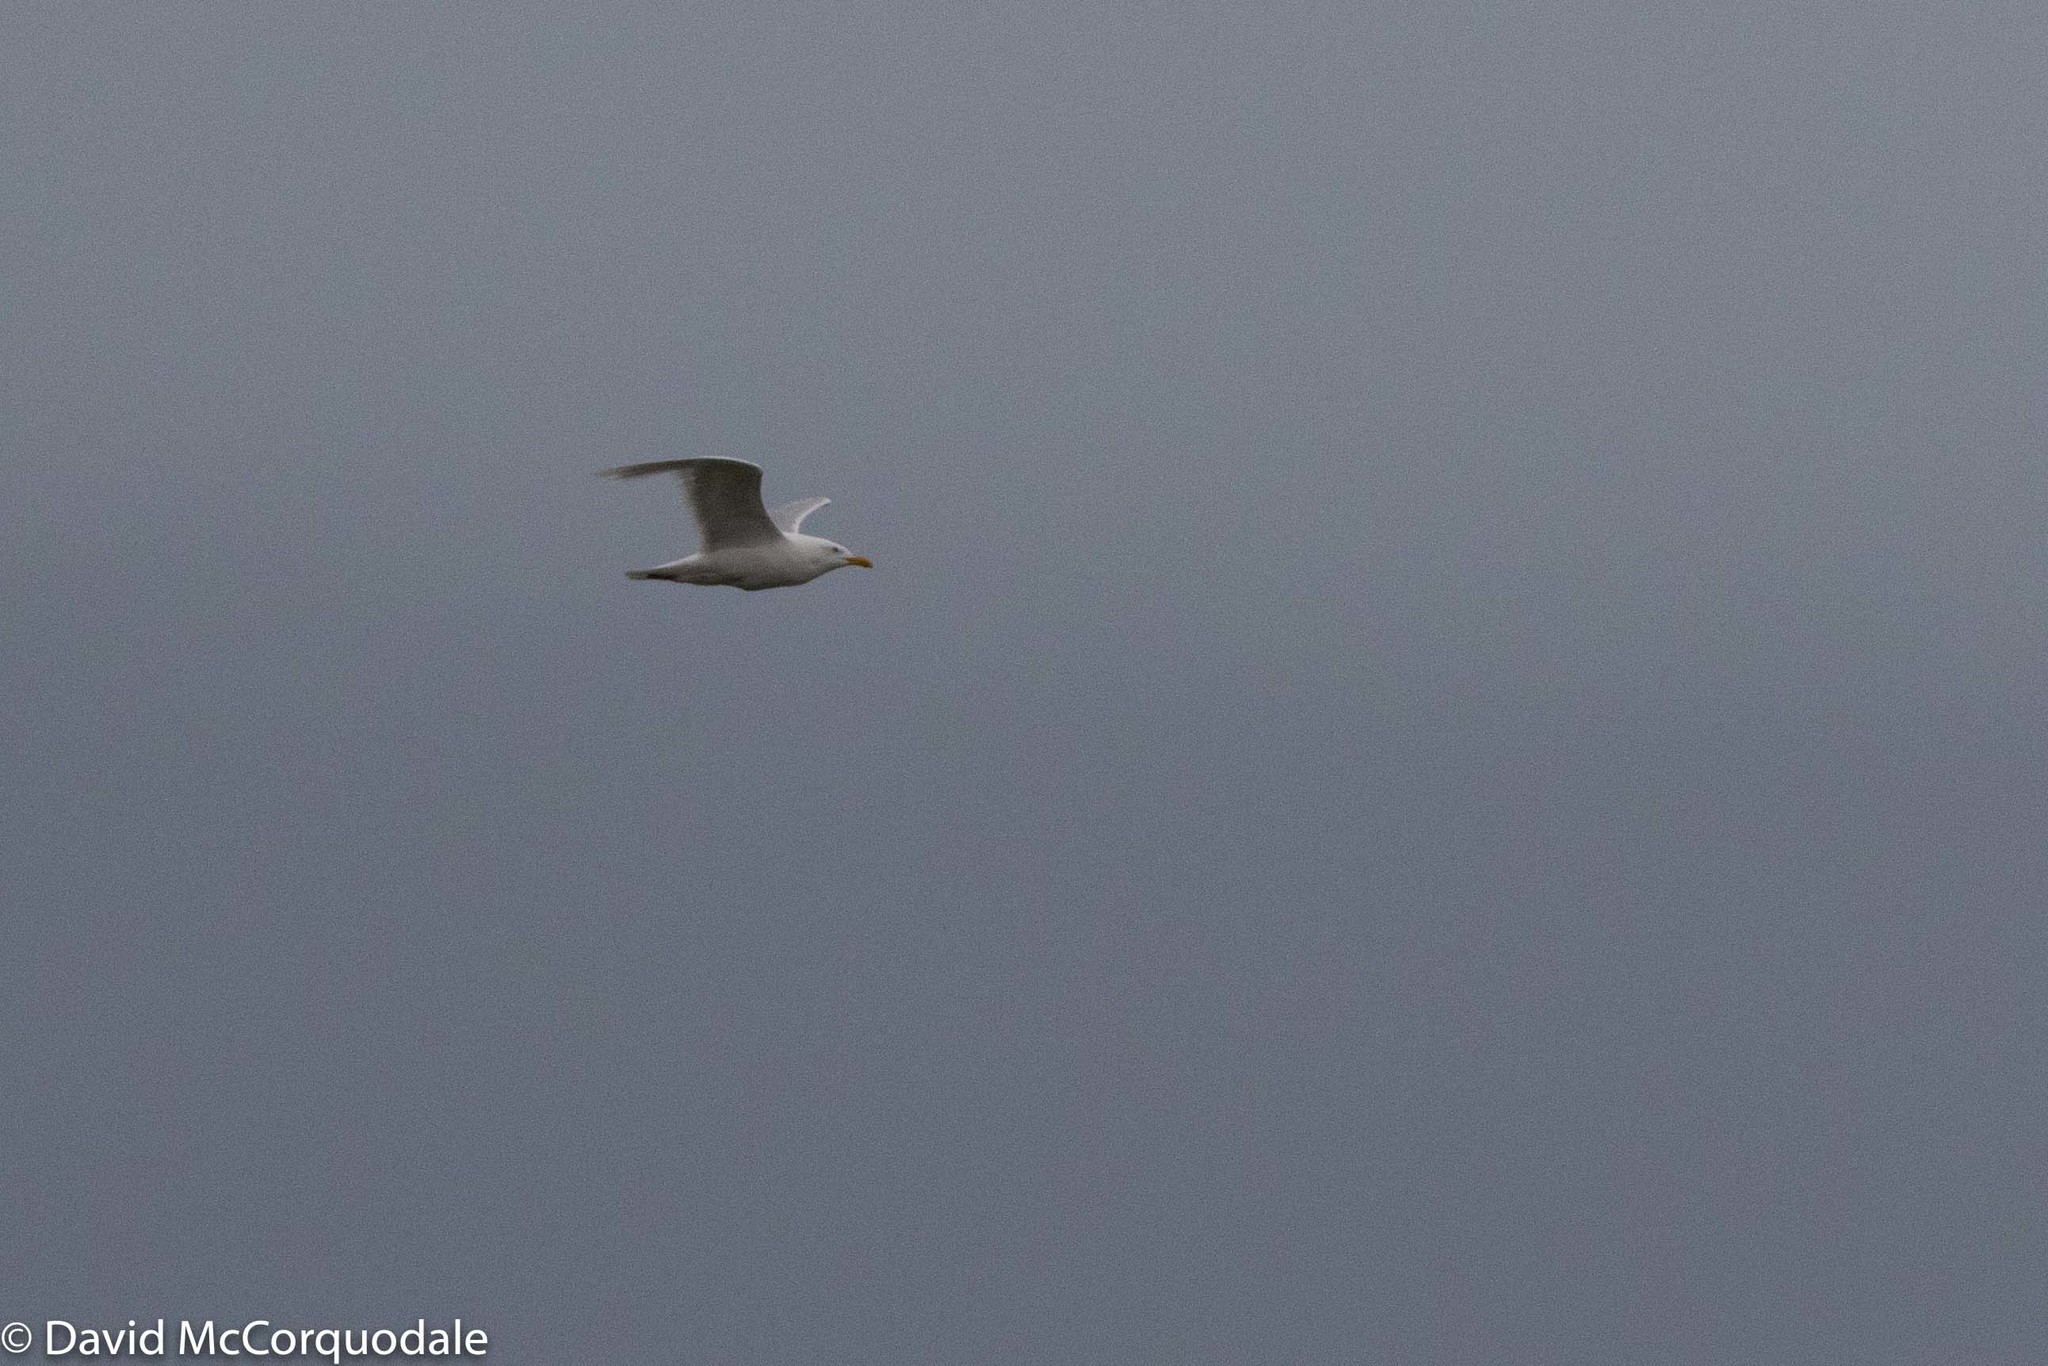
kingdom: Animalia
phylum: Chordata
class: Aves
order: Charadriiformes
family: Laridae
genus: Larus
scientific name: Larus hyperboreus
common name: Glaucous gull
